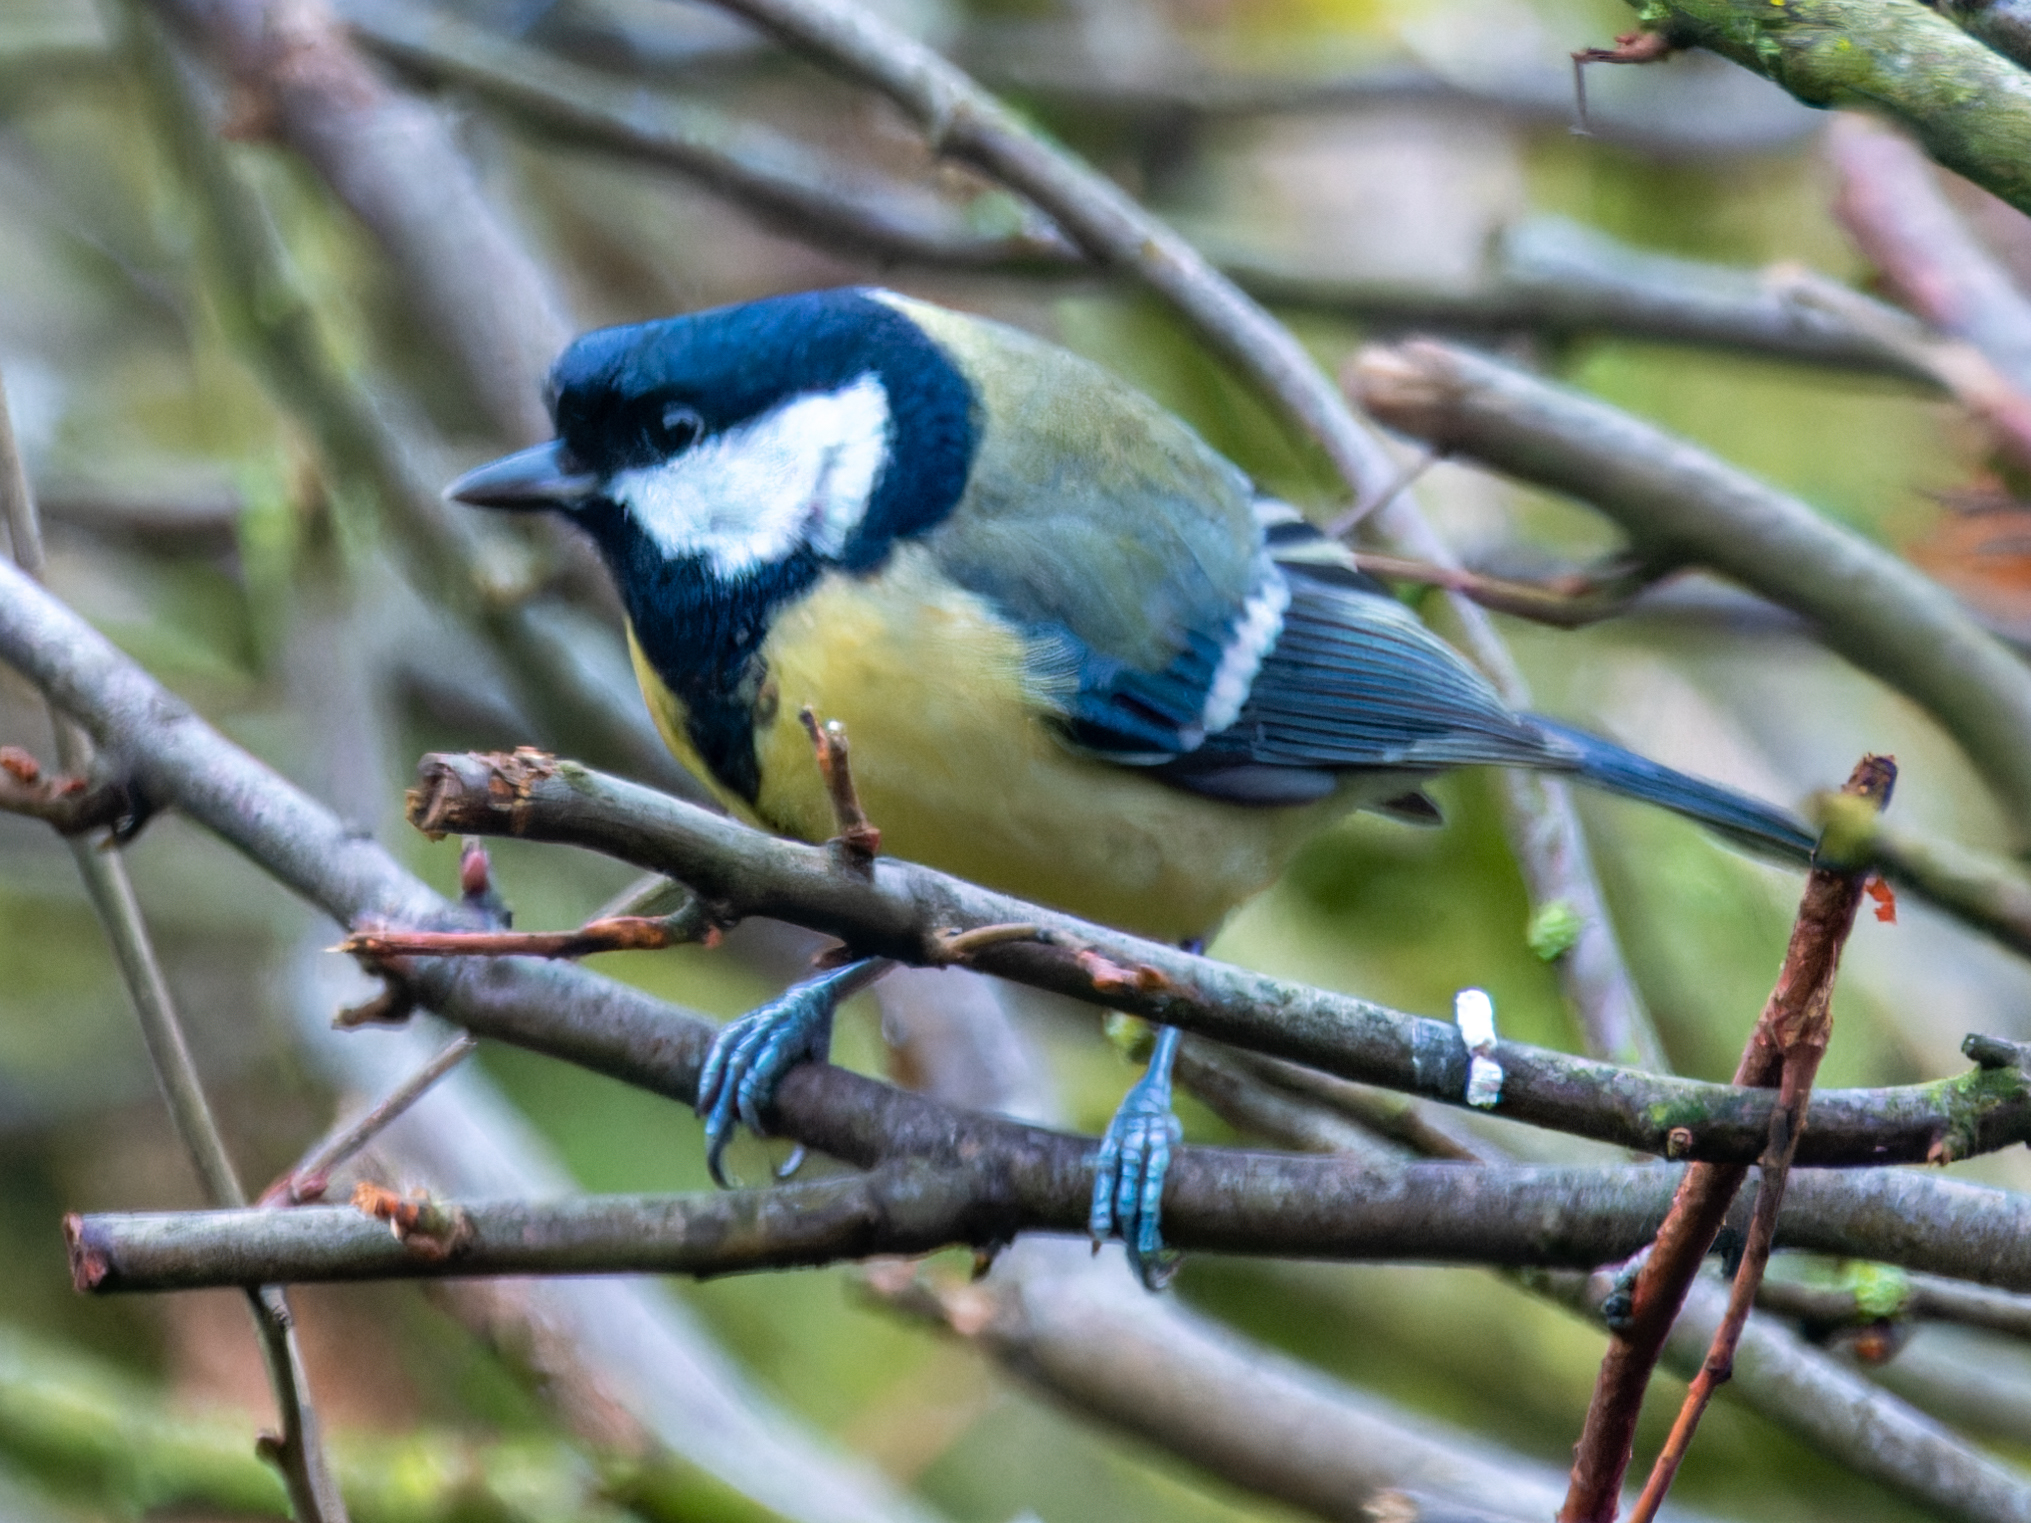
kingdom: Animalia
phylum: Chordata
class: Aves
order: Passeriformes
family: Paridae
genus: Parus
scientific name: Parus major
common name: Great tit
